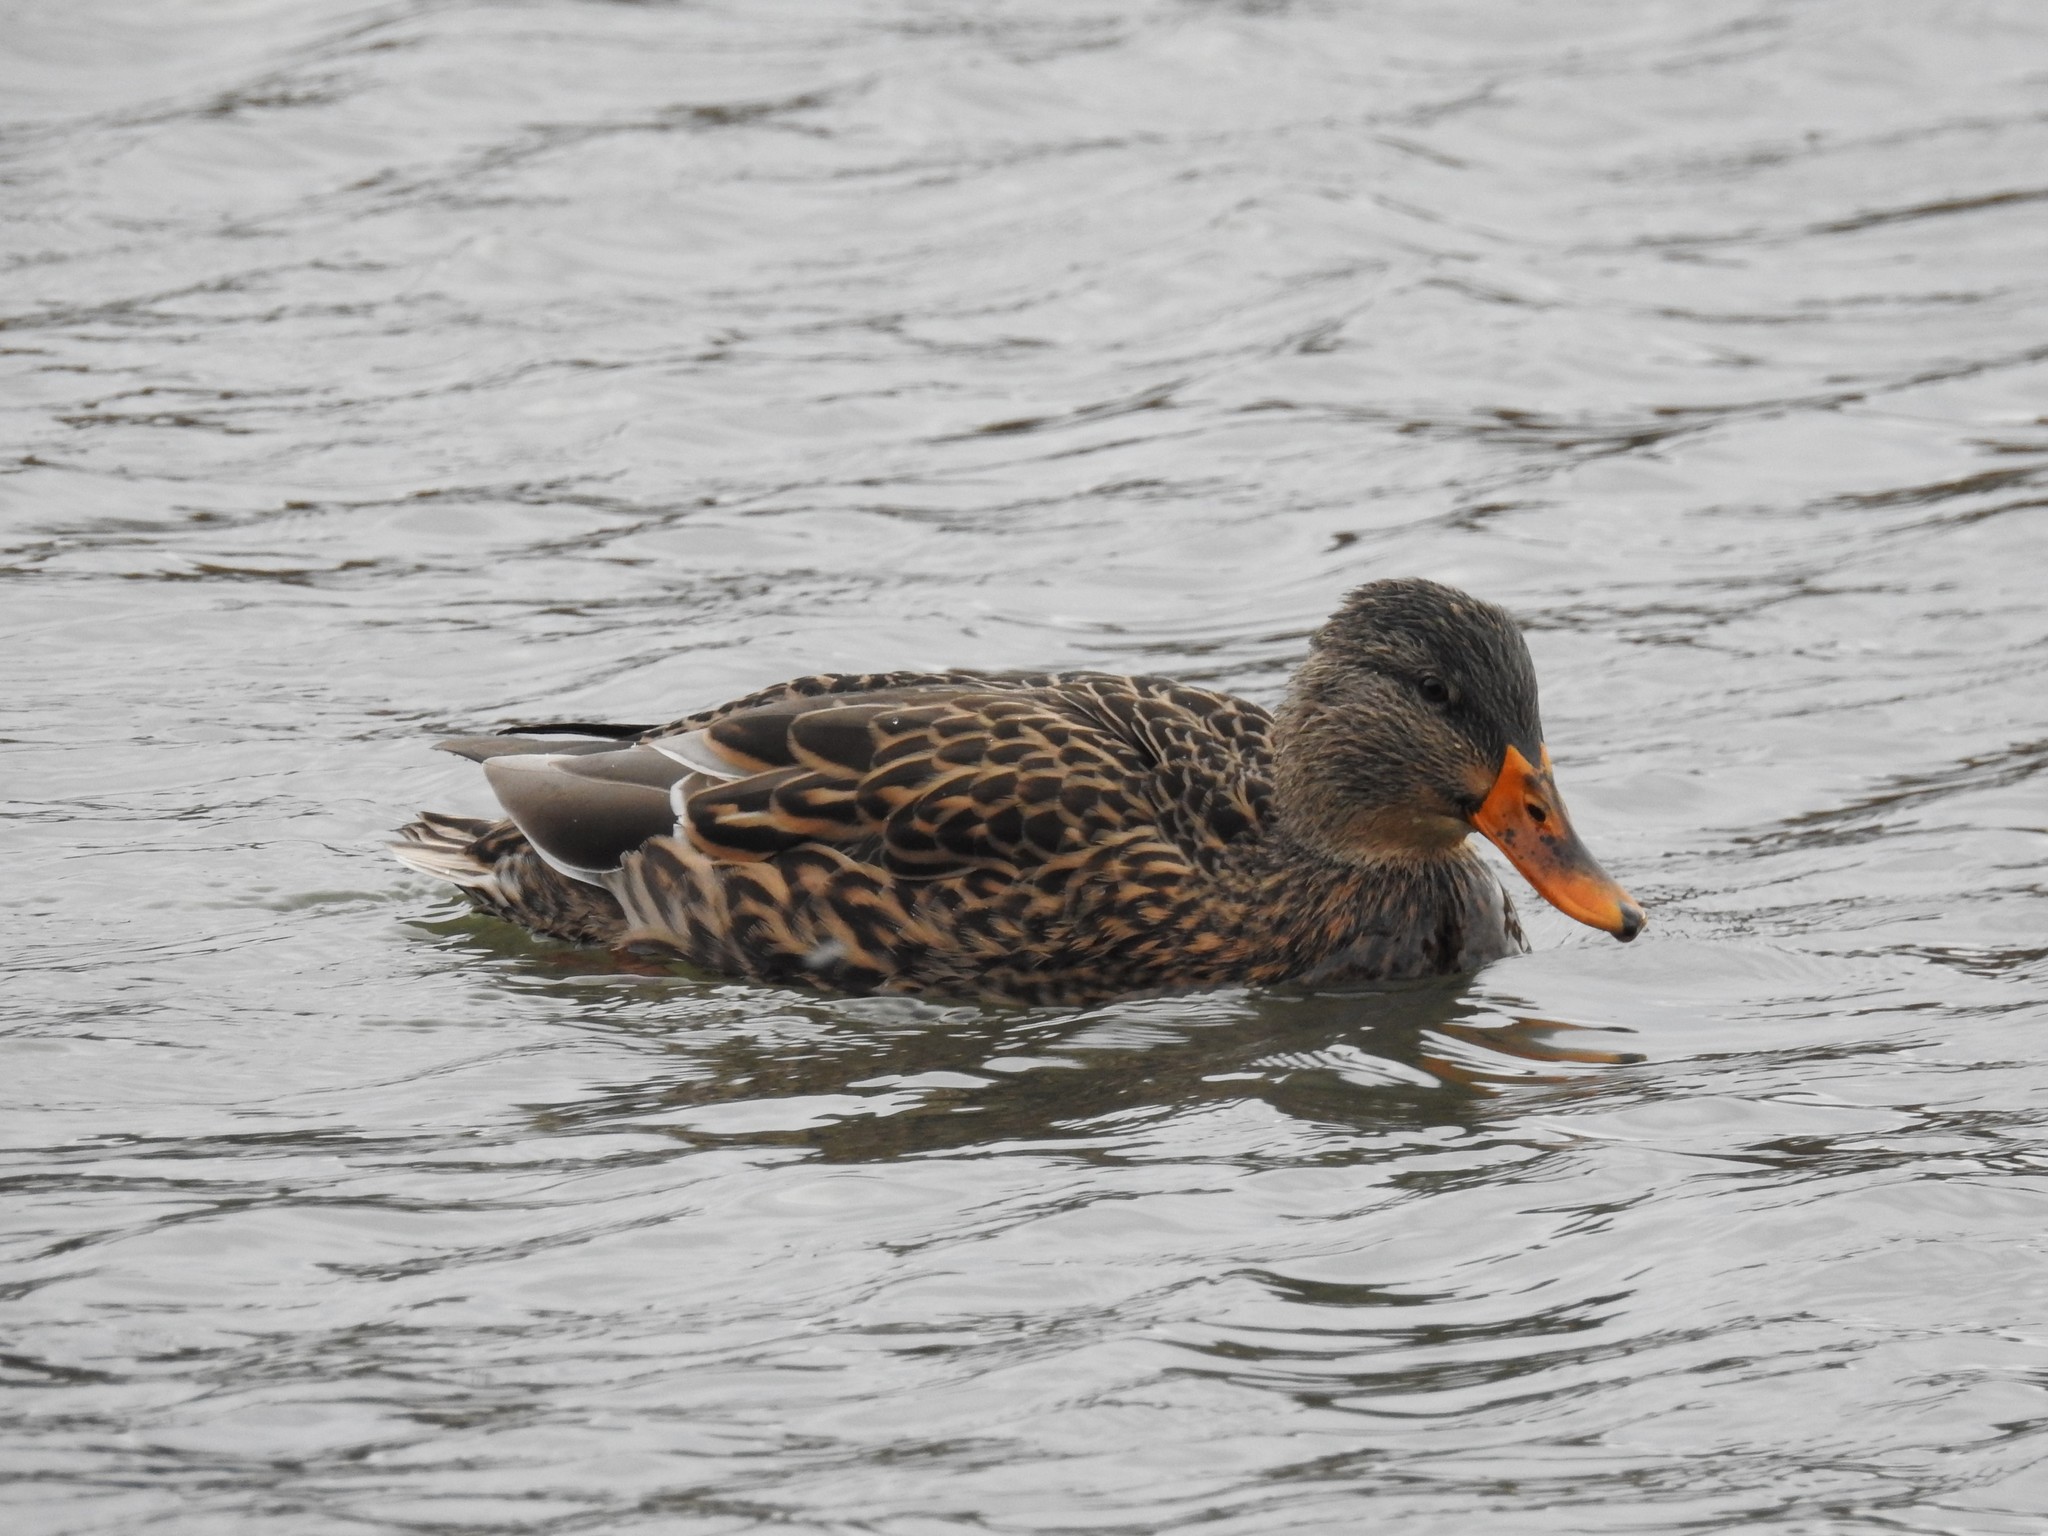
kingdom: Animalia
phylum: Chordata
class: Aves
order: Anseriformes
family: Anatidae
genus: Anas
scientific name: Anas platyrhynchos
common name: Mallard
